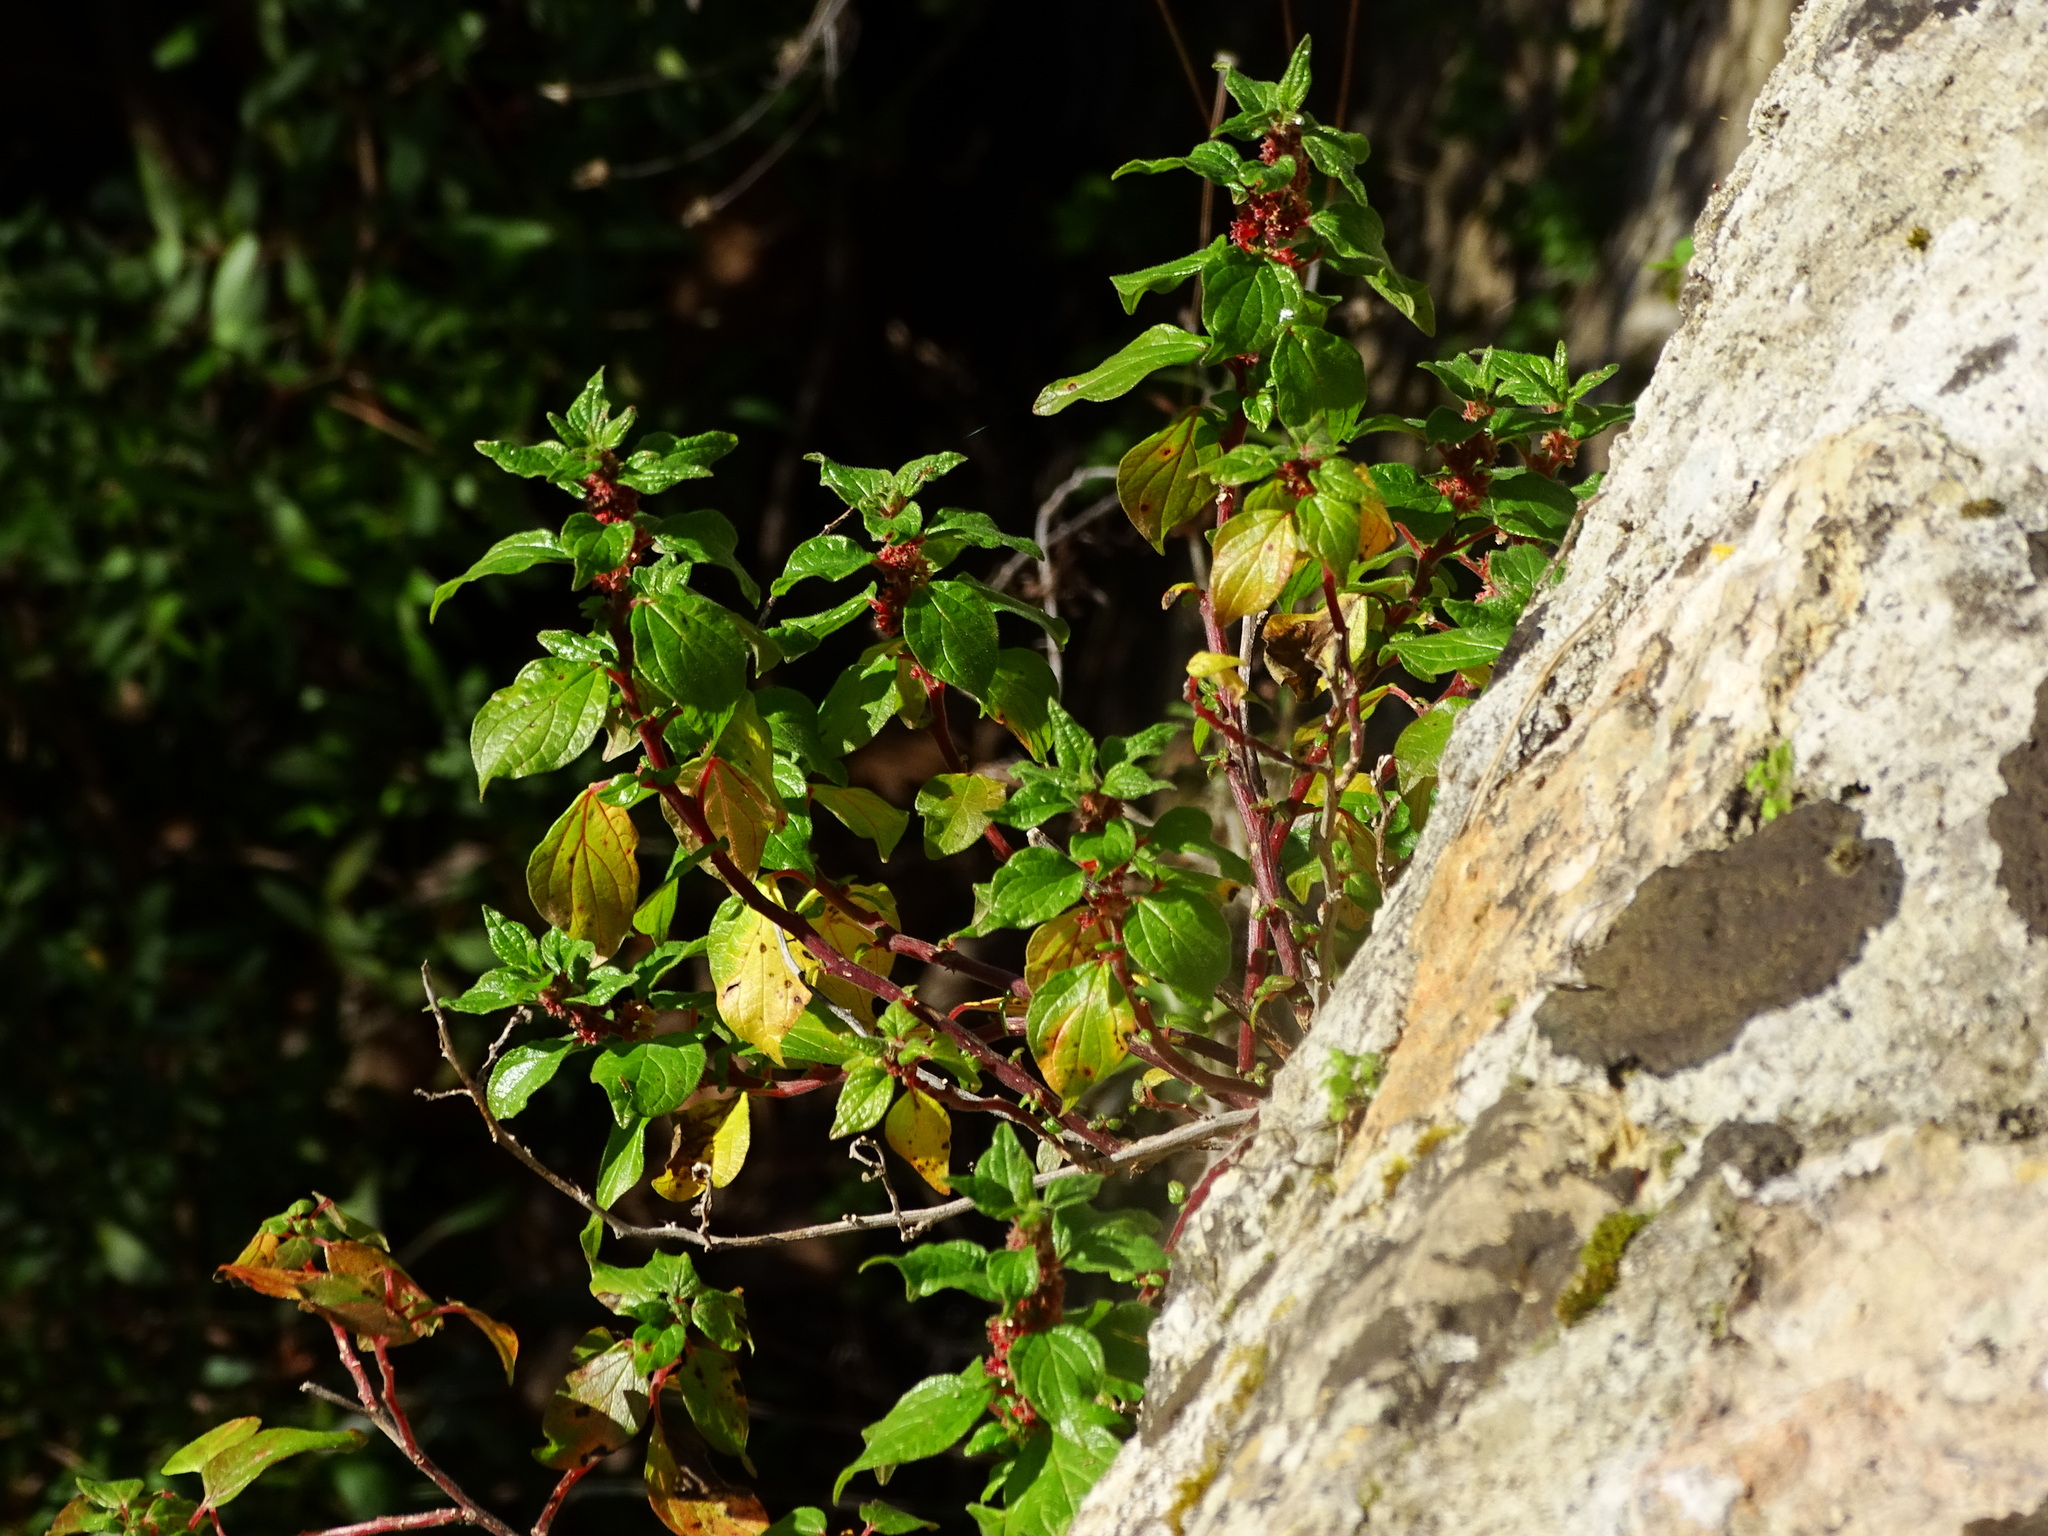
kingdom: Plantae
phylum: Tracheophyta
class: Magnoliopsida
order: Rosales
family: Urticaceae
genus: Parietaria
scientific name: Parietaria judaica
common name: Pellitory-of-the-wall
